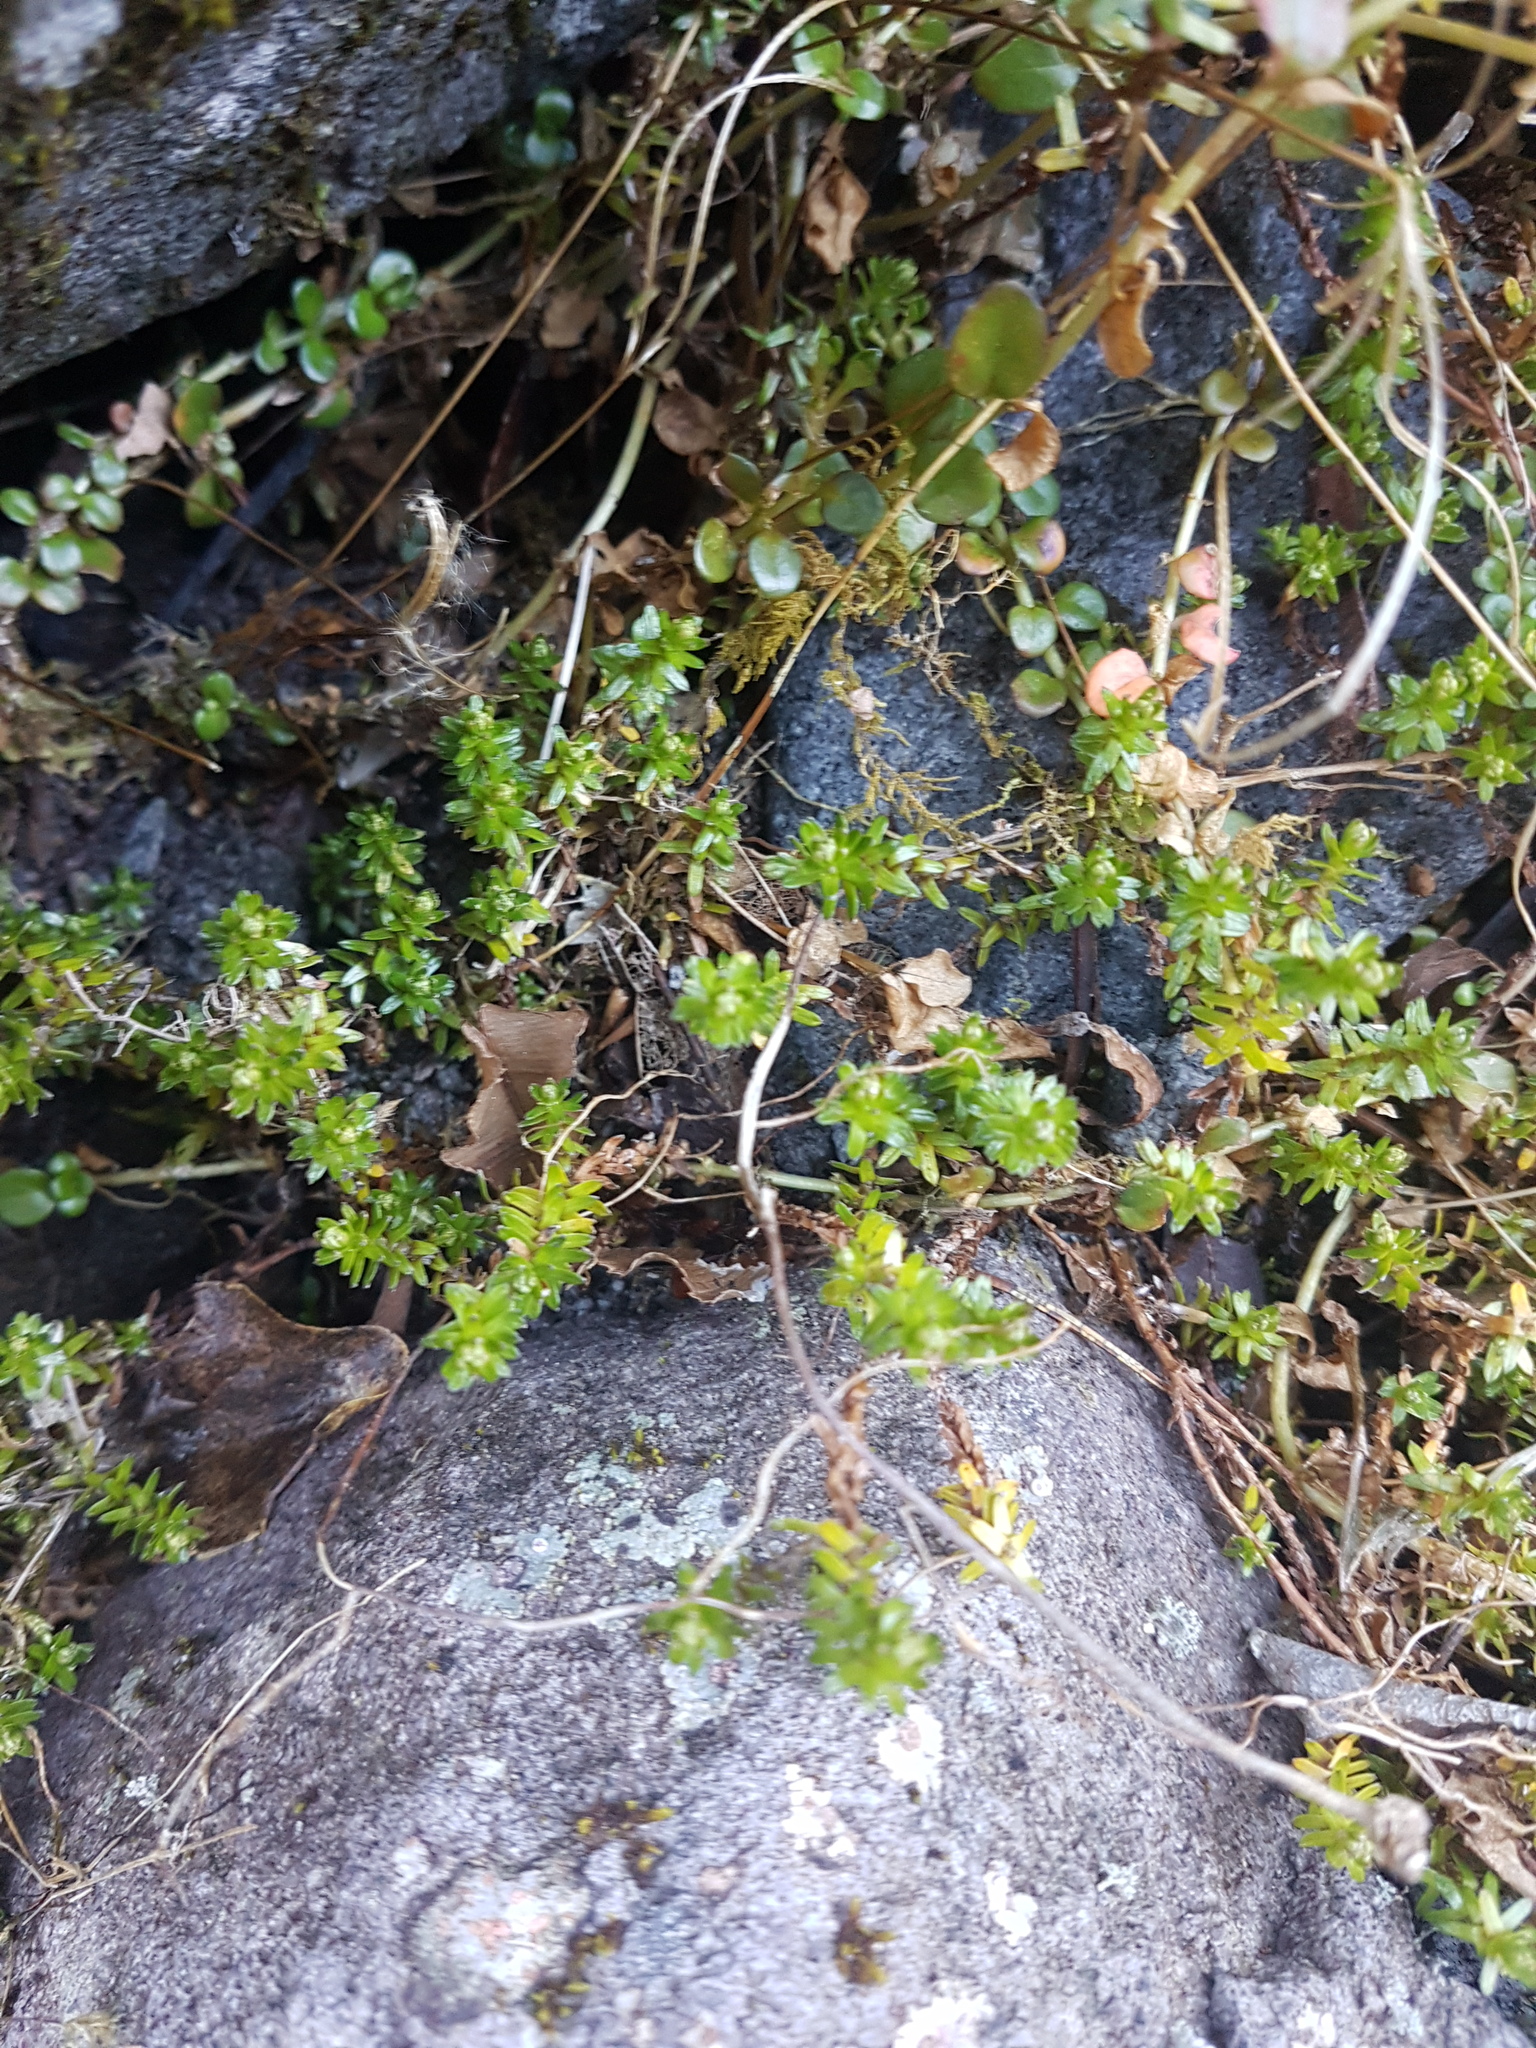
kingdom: Plantae
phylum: Tracheophyta
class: Magnoliopsida
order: Asterales
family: Asteraceae
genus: Raoulia
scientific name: Raoulia glabra
